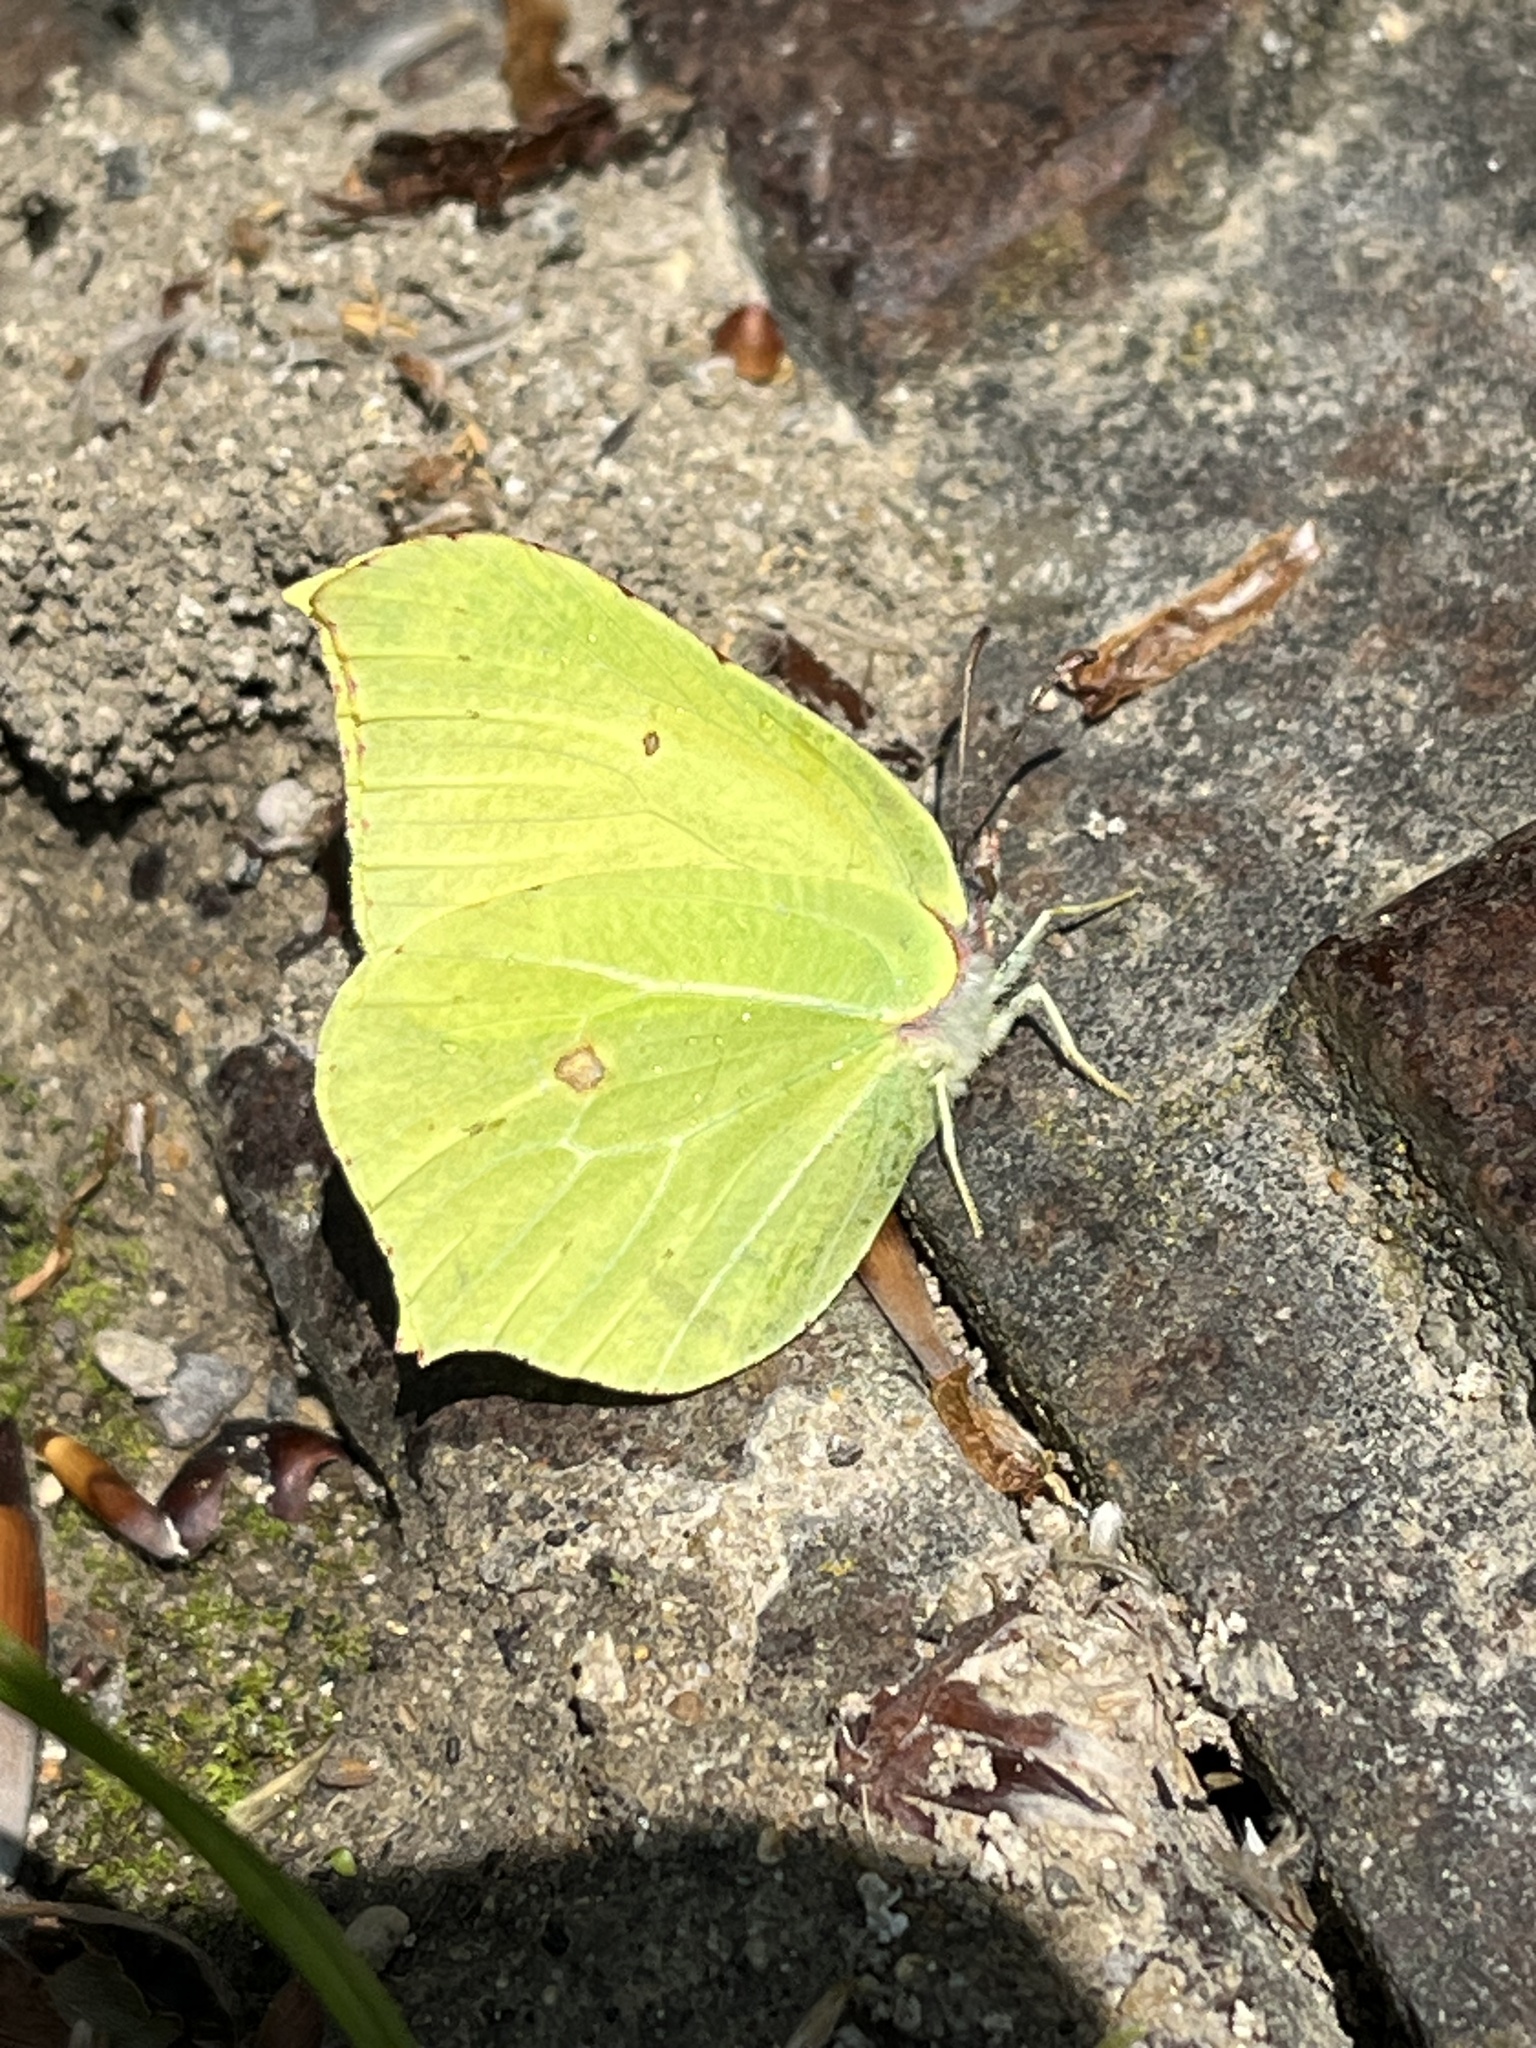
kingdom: Animalia
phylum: Arthropoda
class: Insecta
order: Lepidoptera
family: Pieridae
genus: Gonepteryx
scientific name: Gonepteryx rhamni
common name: Brimstone
